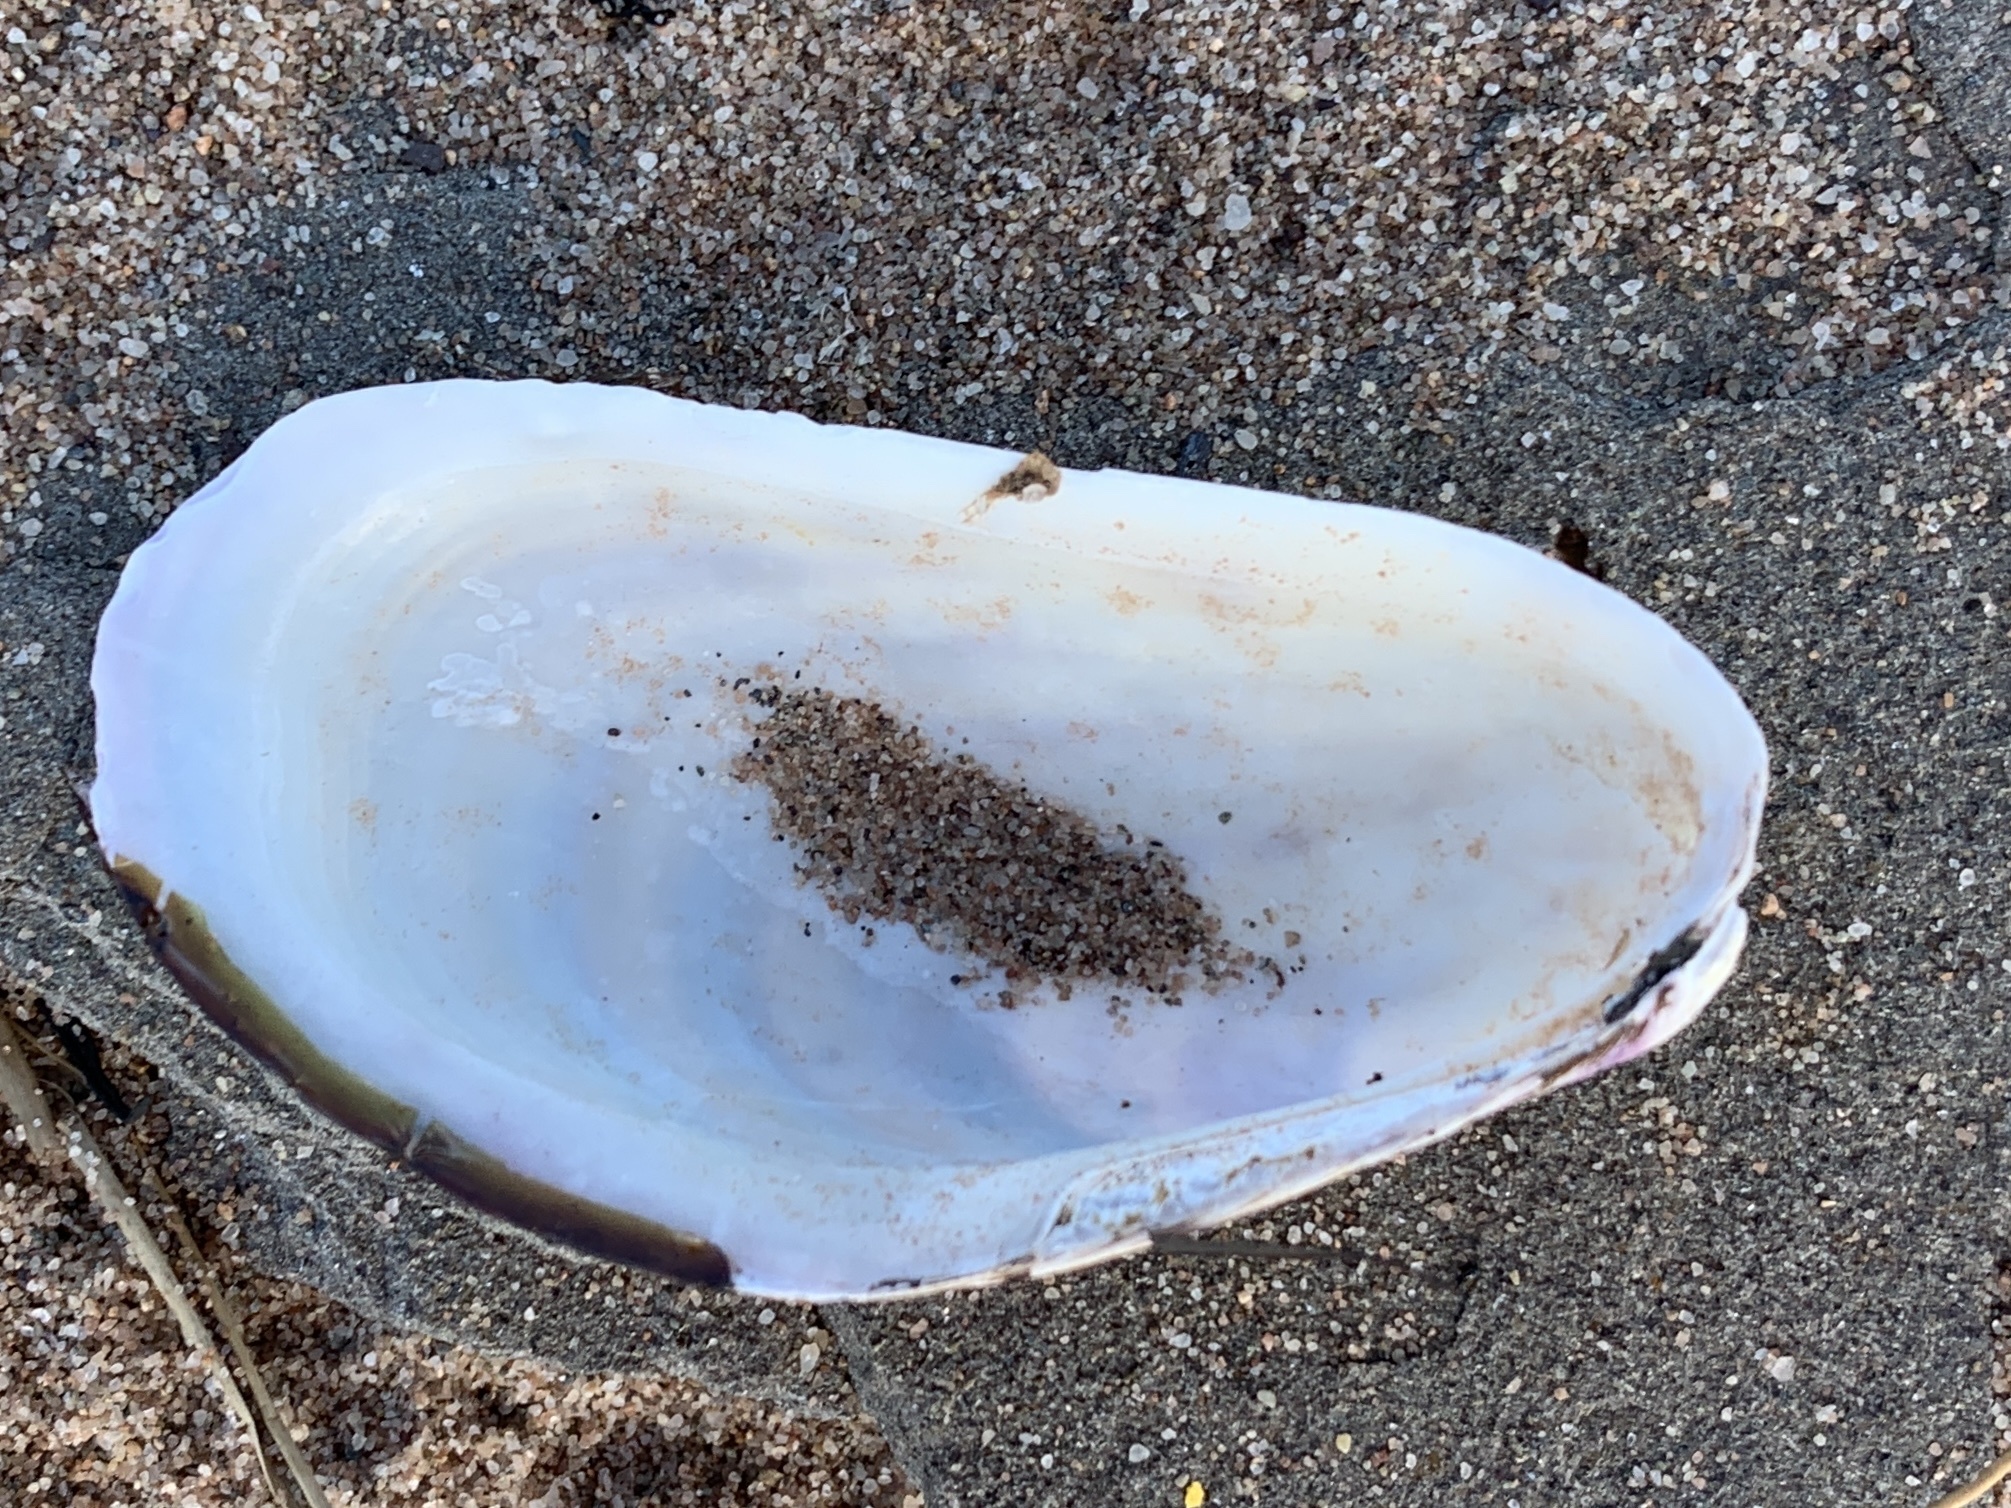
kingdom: Animalia
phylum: Mollusca
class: Bivalvia
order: Mytilida
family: Mytilidae
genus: Modiolus
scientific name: Modiolus modiolus
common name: Horse-mussel
